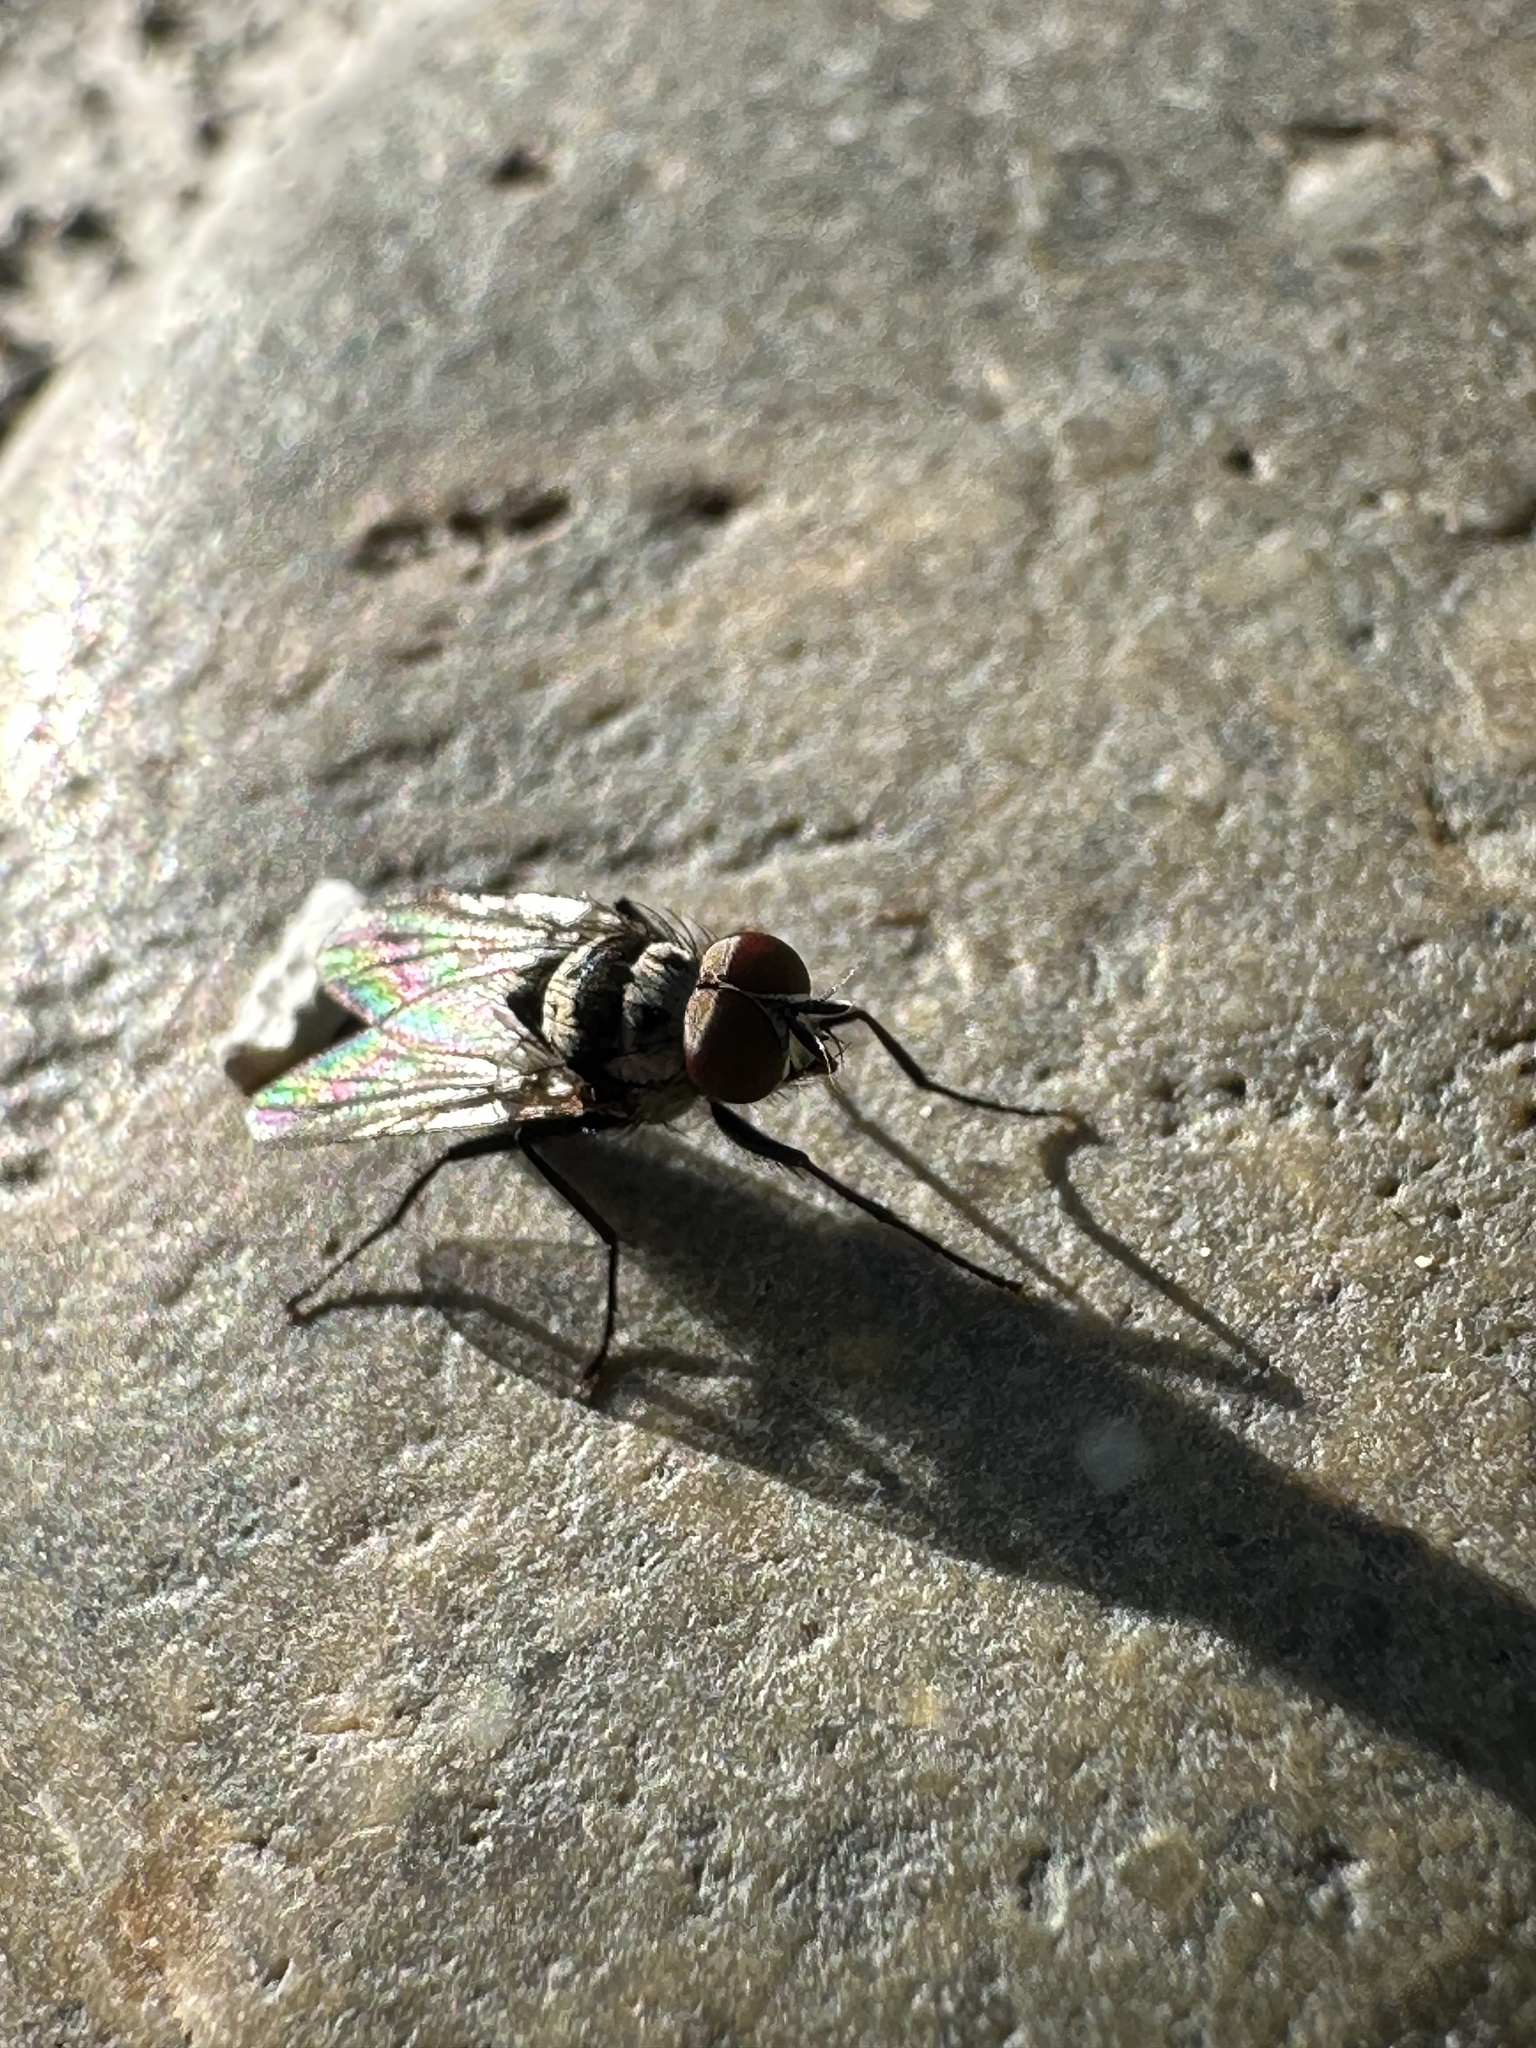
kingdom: Animalia
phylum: Arthropoda
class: Insecta
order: Diptera
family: Anthomyiidae
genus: Anthomyia
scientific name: Anthomyia oculifera
